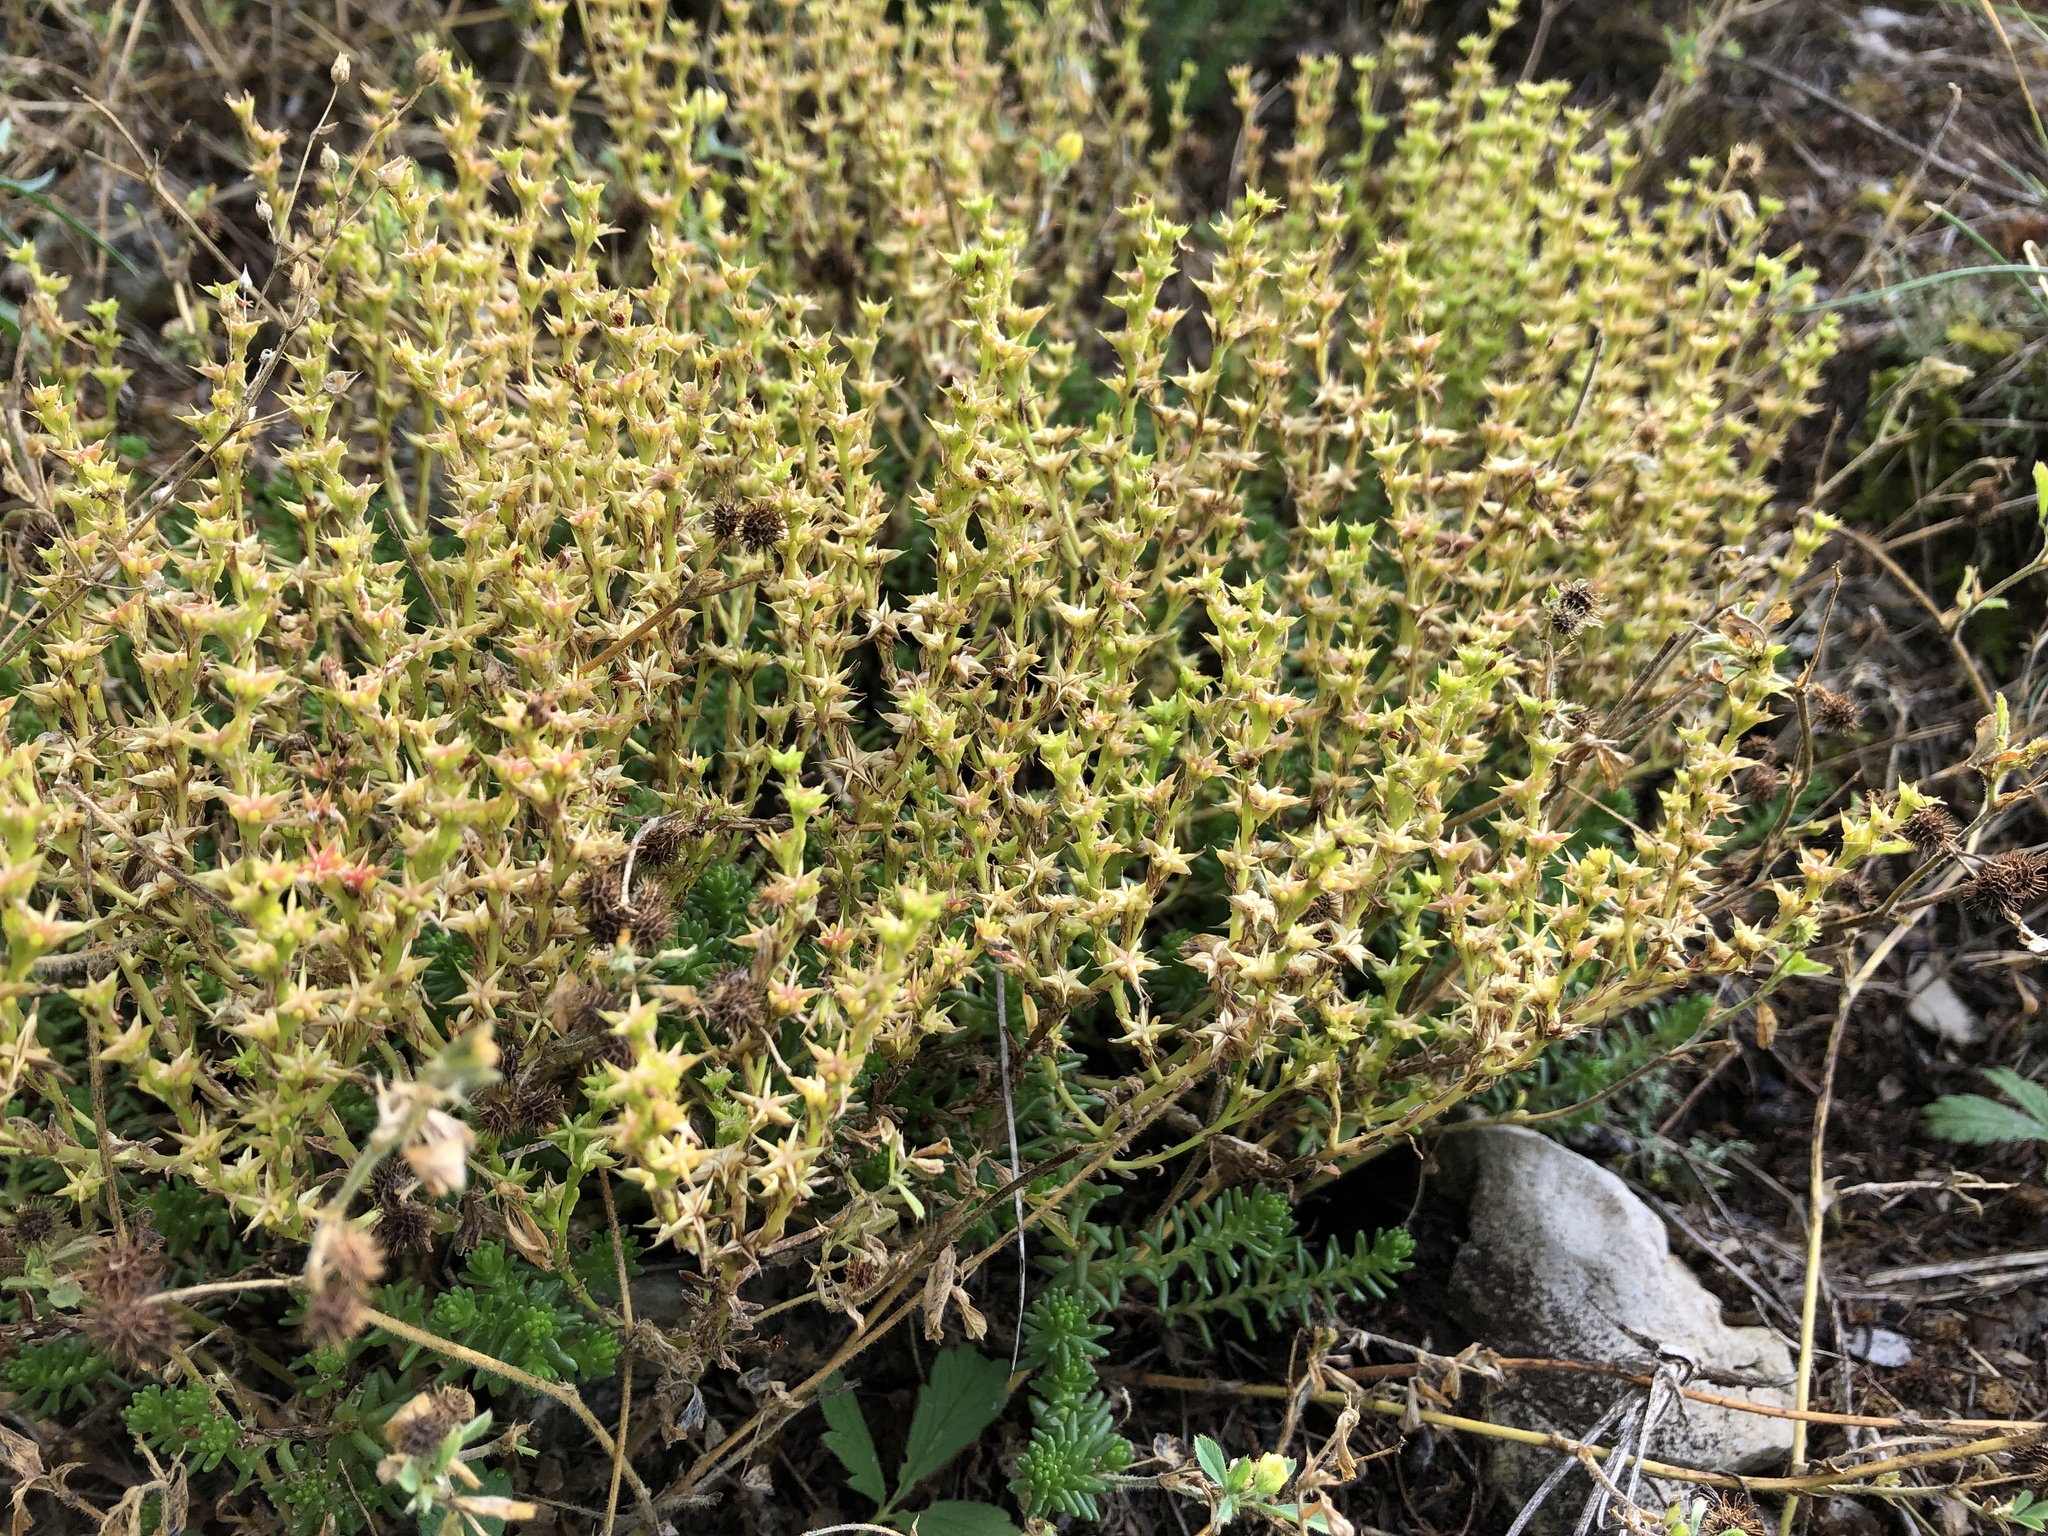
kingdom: Plantae
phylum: Tracheophyta
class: Magnoliopsida
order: Saxifragales
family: Crassulaceae
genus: Sedum
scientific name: Sedum sexangulare
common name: Tasteless stonecrop
